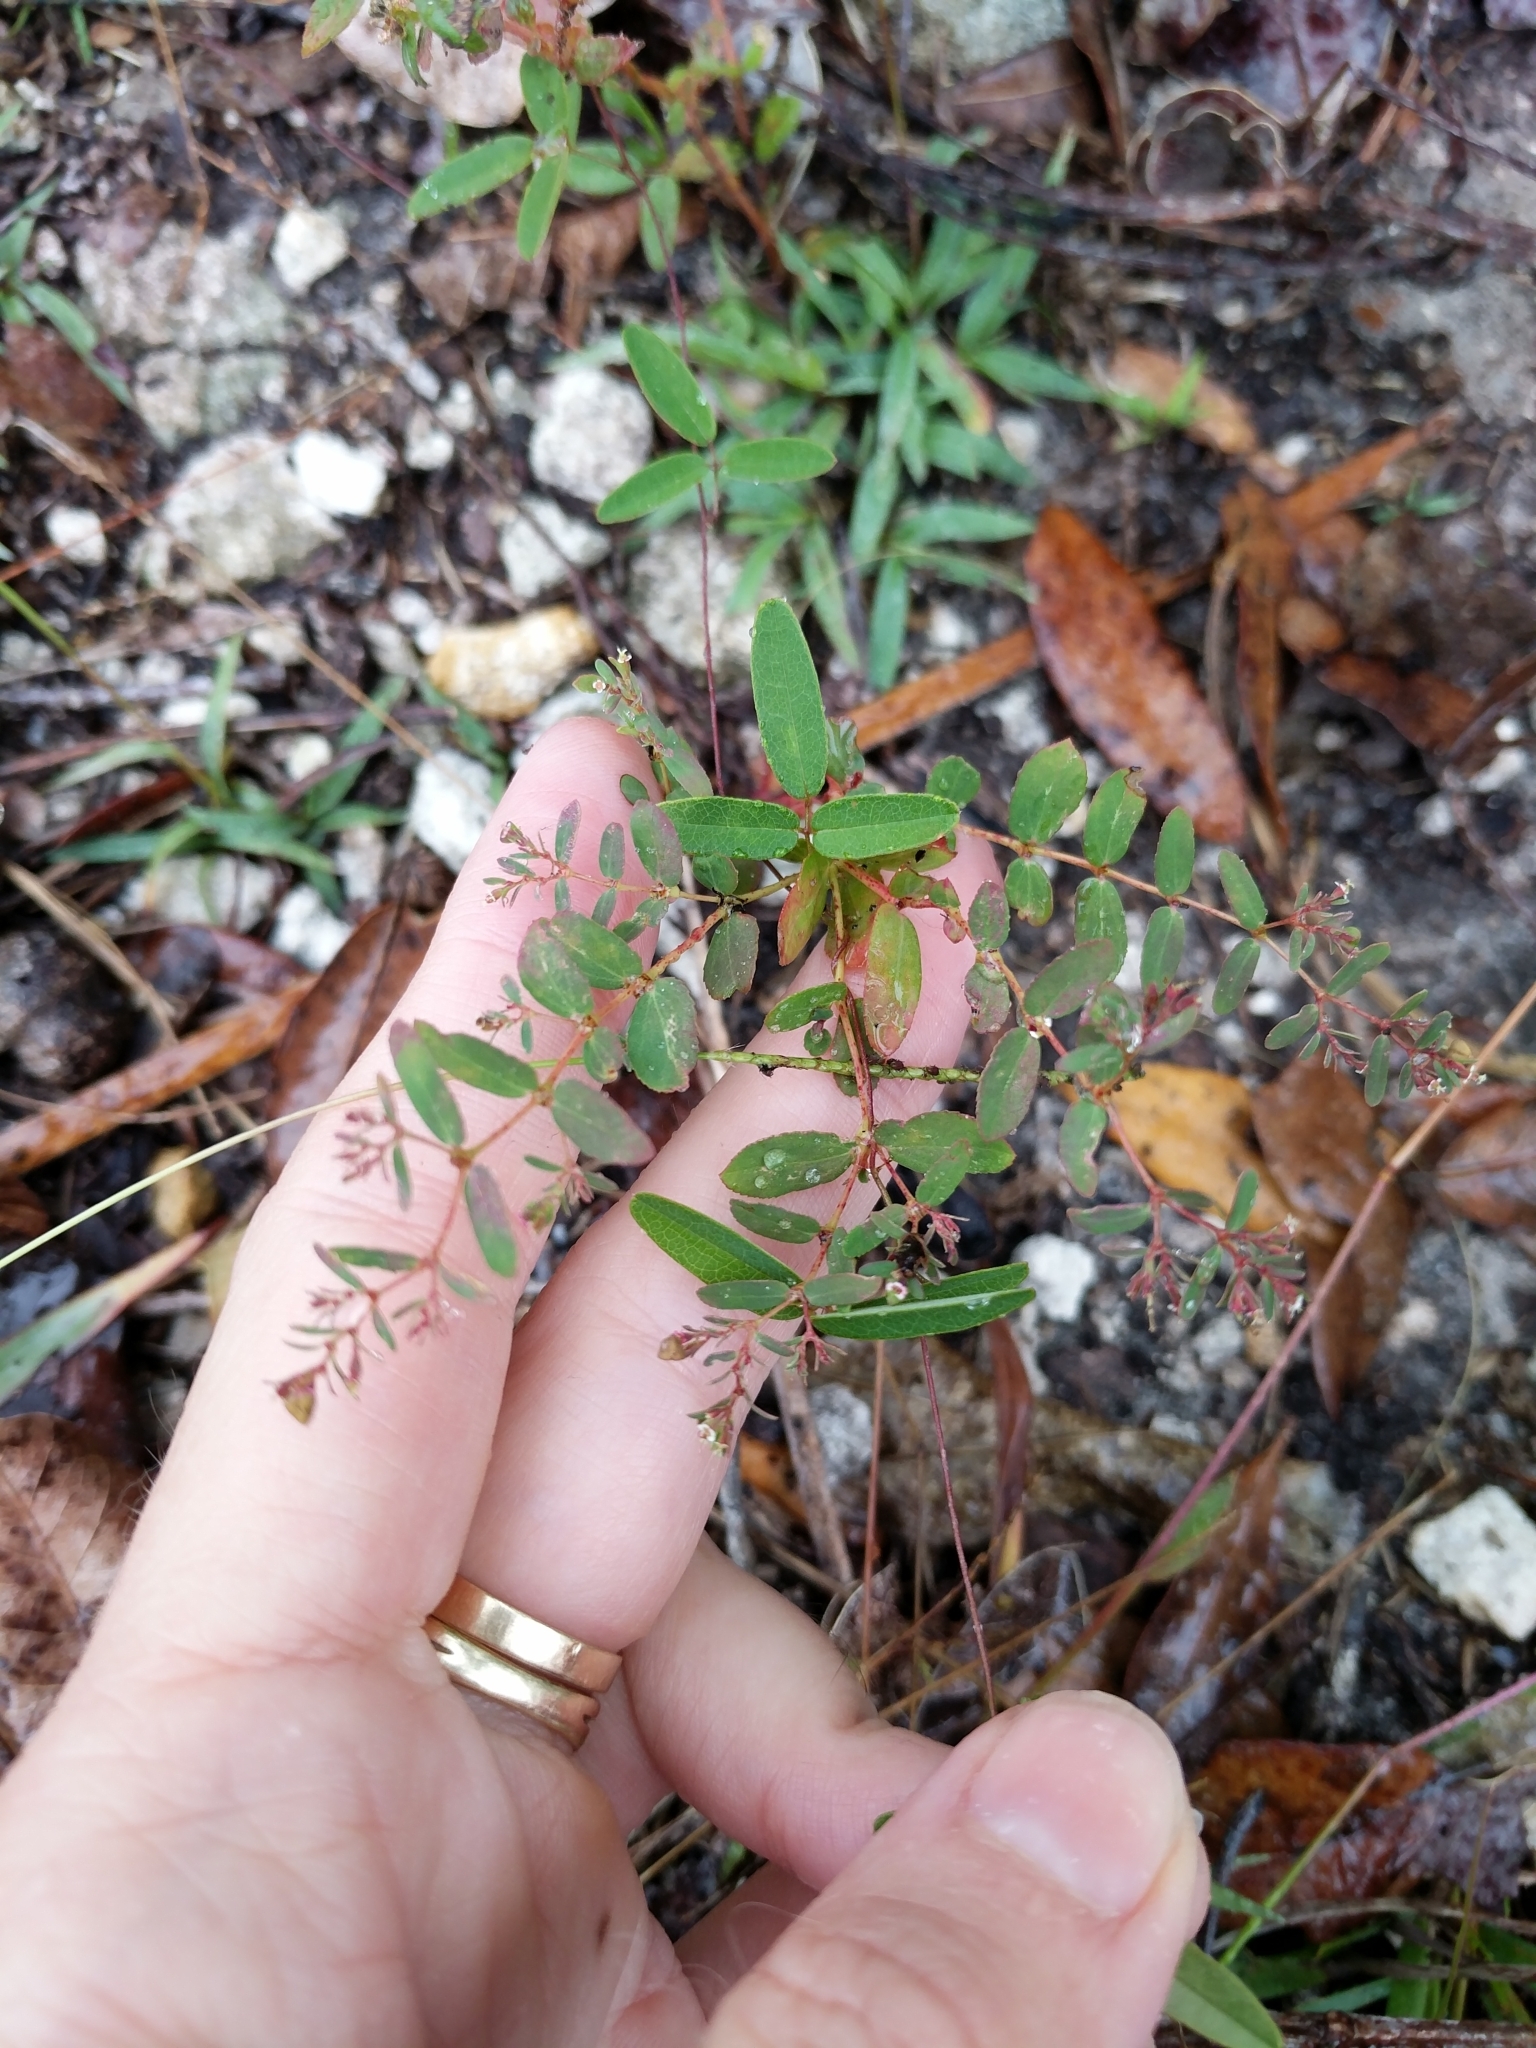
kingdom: Plantae
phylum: Tracheophyta
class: Magnoliopsida
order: Malpighiales
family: Euphorbiaceae
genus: Euphorbia
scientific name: Euphorbia hyssopifolia
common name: Hyssopleaf sandmat
